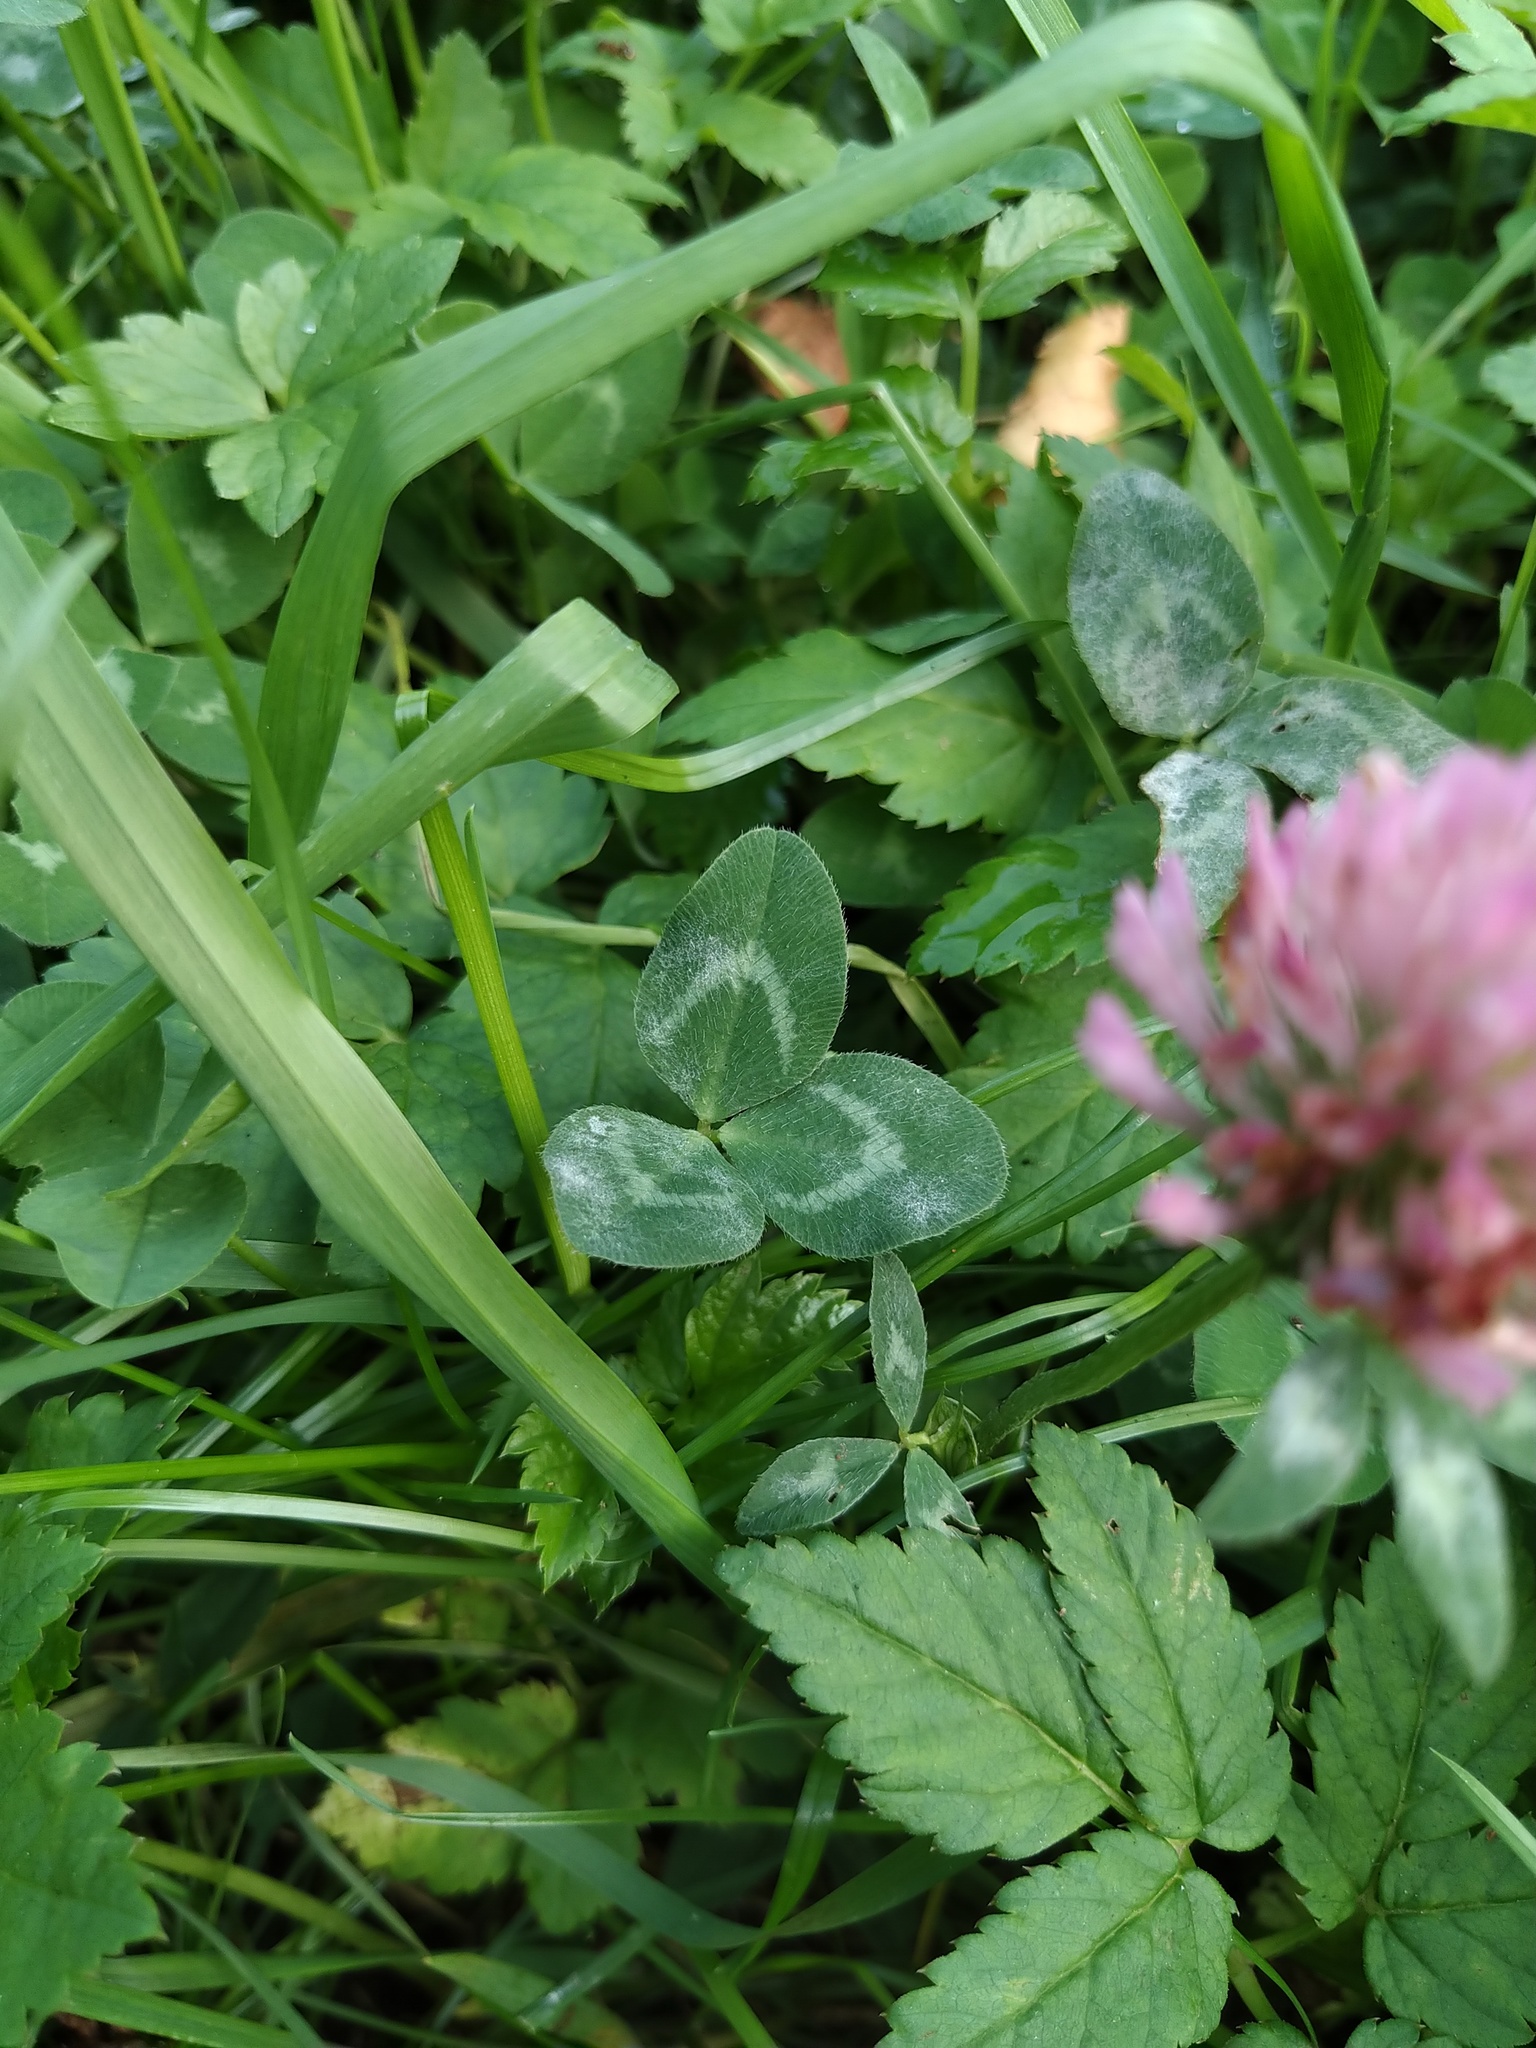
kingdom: Plantae
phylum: Tracheophyta
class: Magnoliopsida
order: Fabales
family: Fabaceae
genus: Trifolium
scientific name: Trifolium pratense
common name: Red clover
